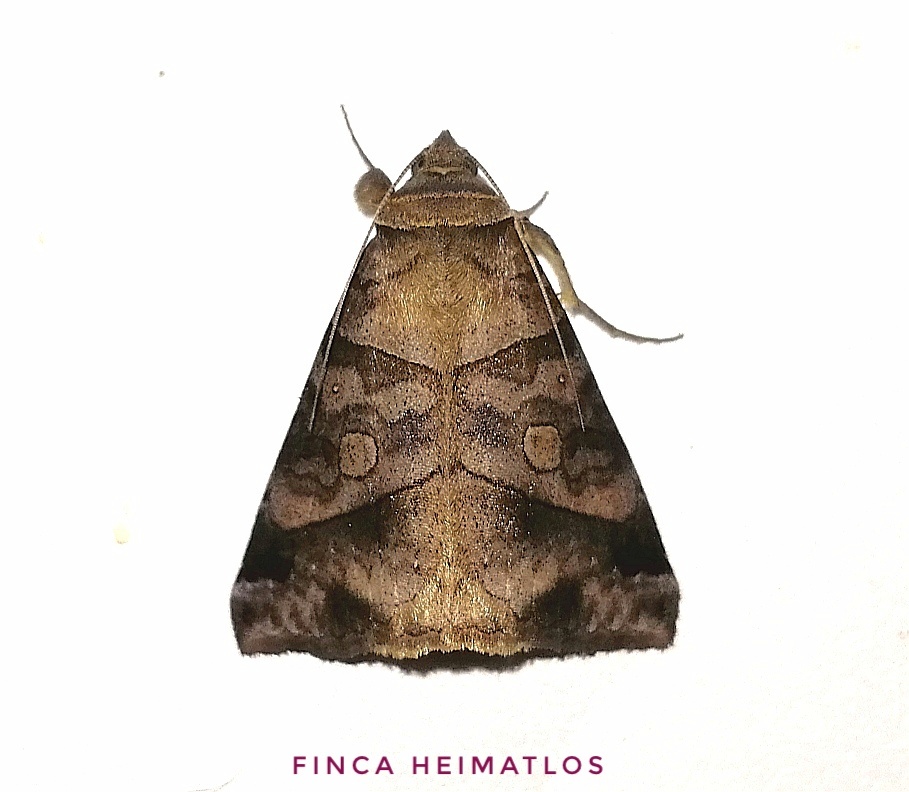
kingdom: Animalia
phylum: Arthropoda
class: Insecta
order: Lepidoptera
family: Erebidae
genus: Mocis
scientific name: Mocis diffluens
